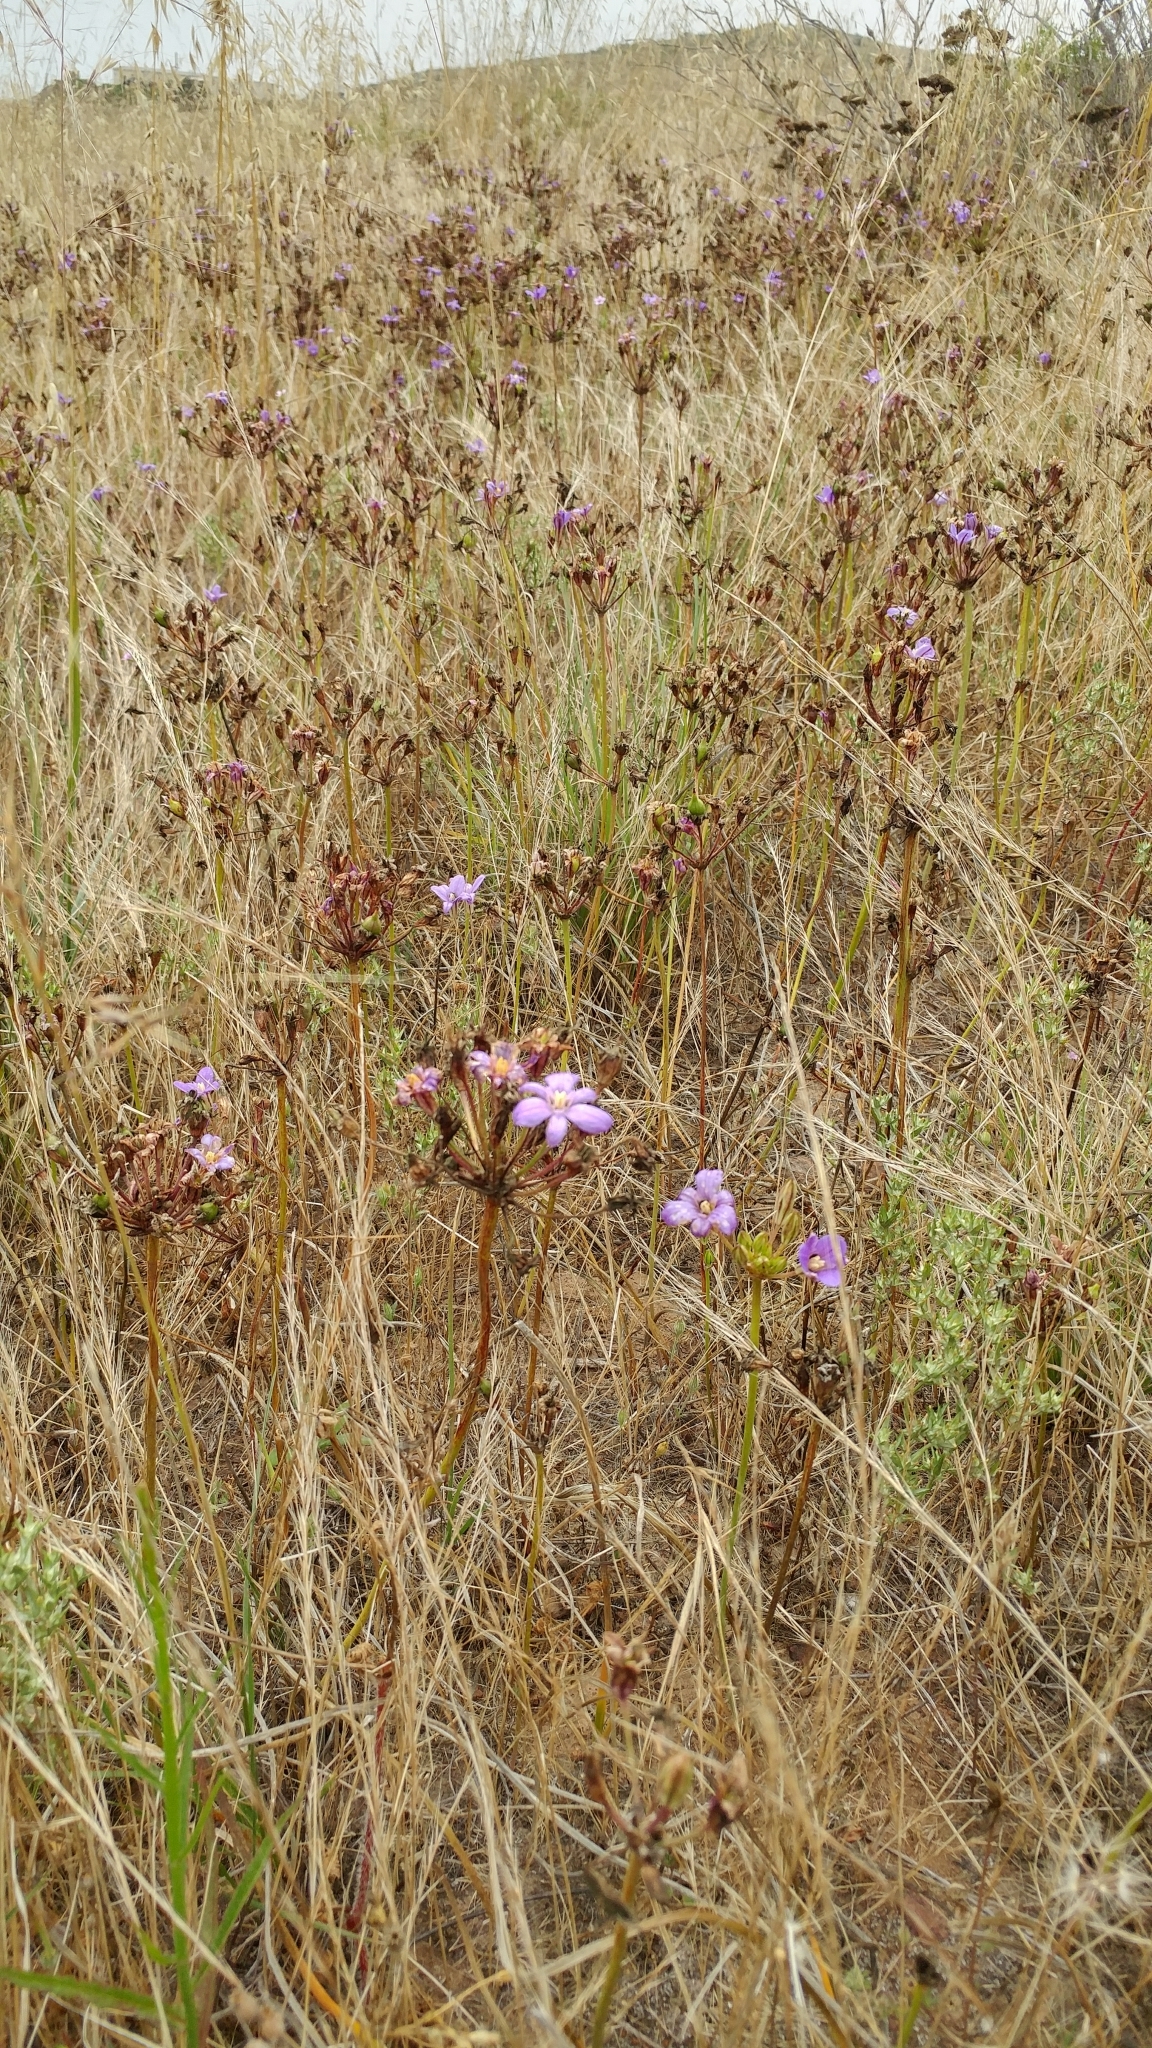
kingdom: Plantae
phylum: Tracheophyta
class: Liliopsida
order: Asparagales
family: Asparagaceae
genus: Brodiaea
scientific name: Brodiaea kinkiensis
